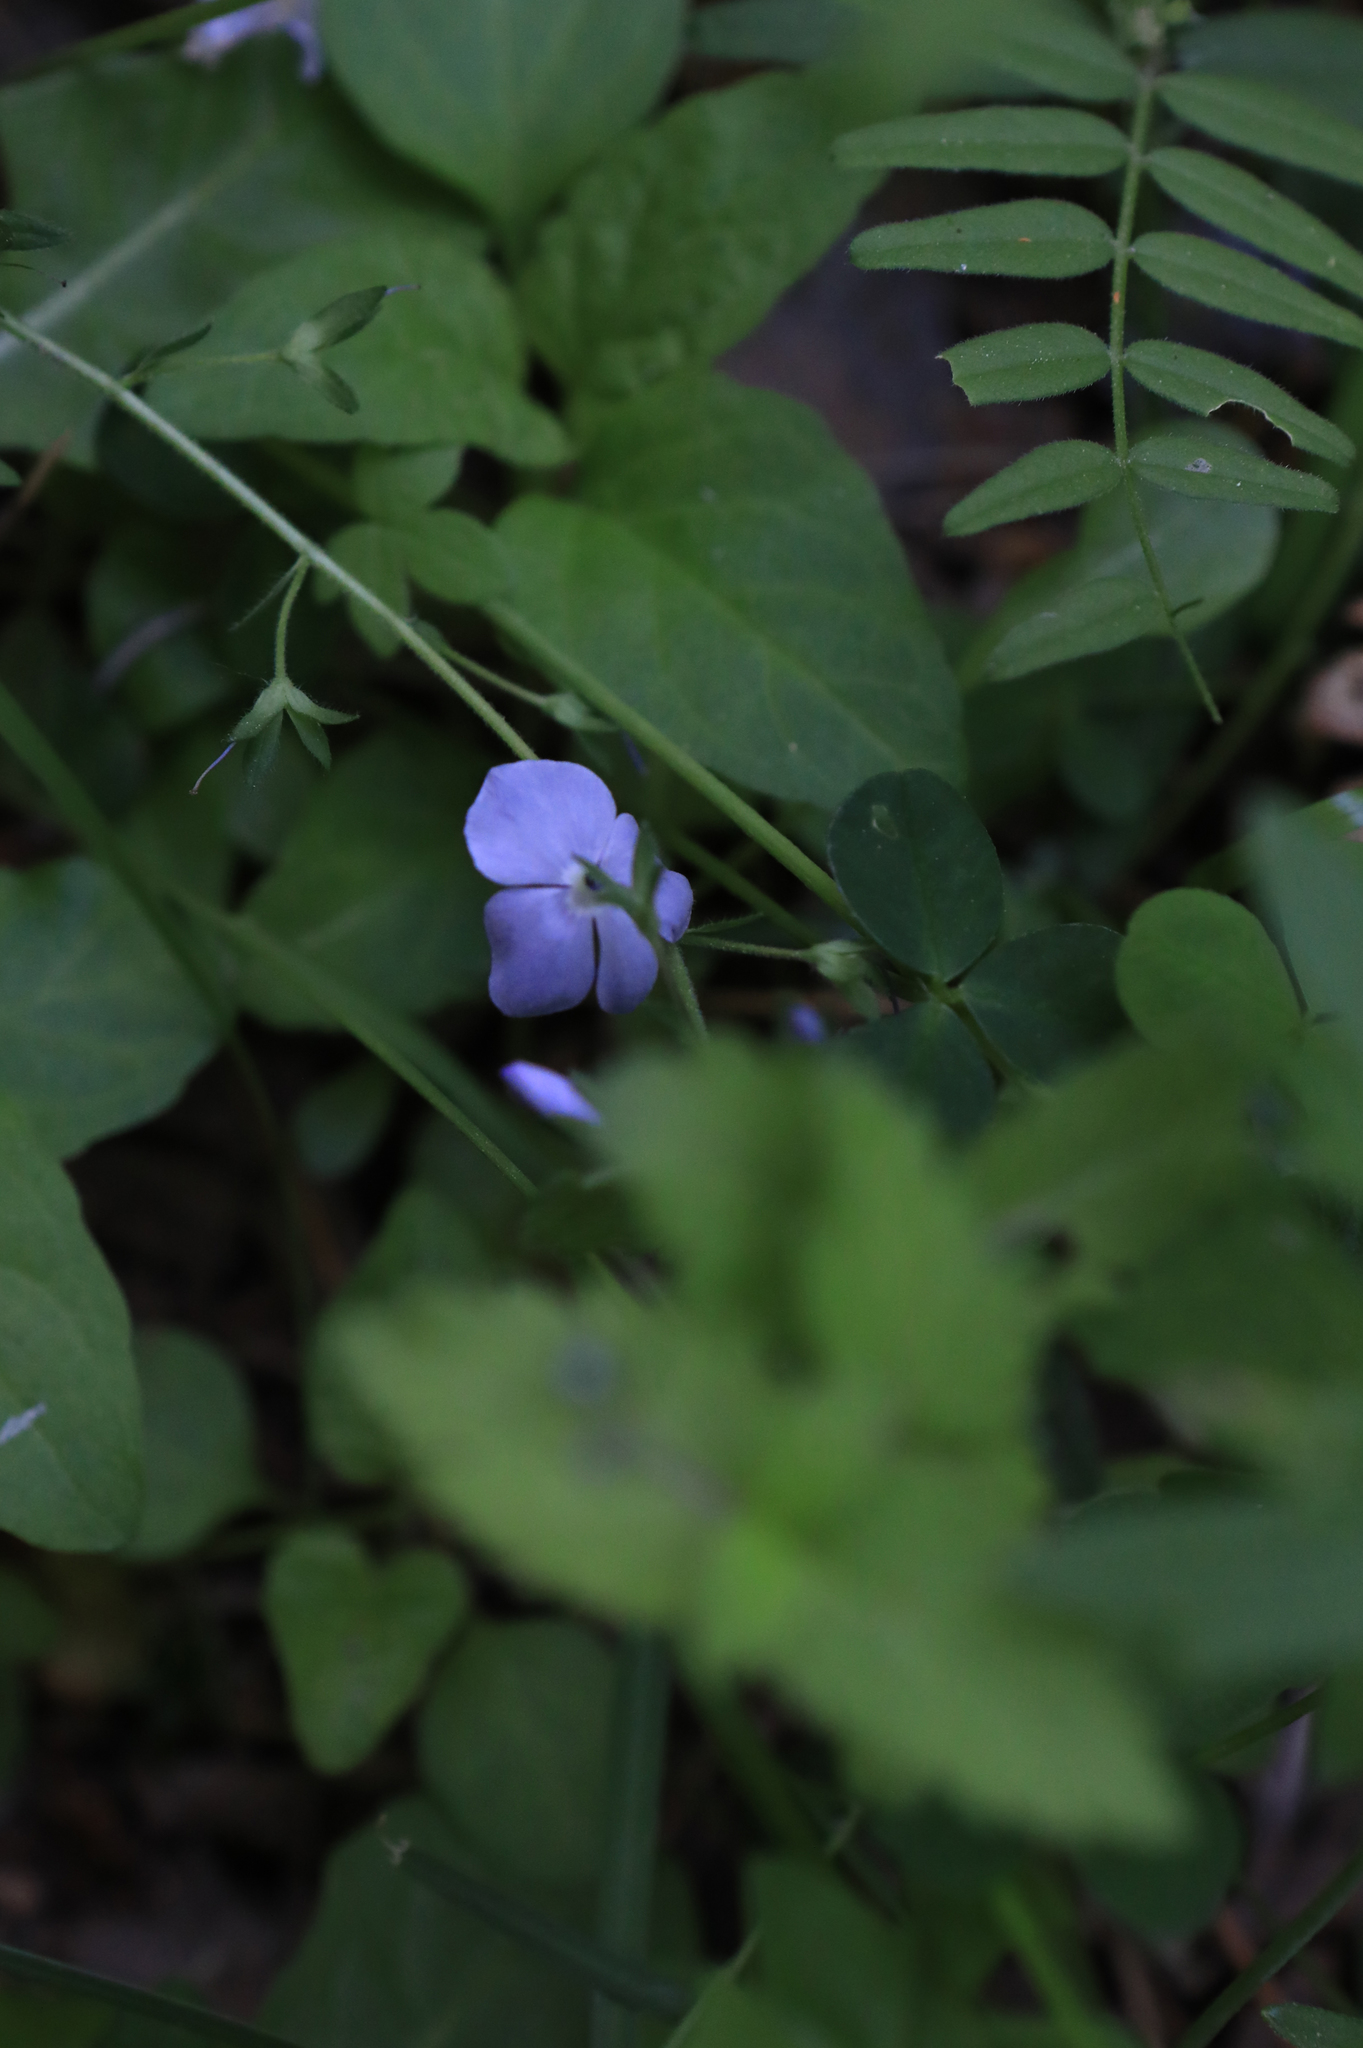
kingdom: Plantae
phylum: Tracheophyta
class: Magnoliopsida
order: Lamiales
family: Plantaginaceae
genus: Veronica
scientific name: Veronica chamaedrys
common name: Germander speedwell
